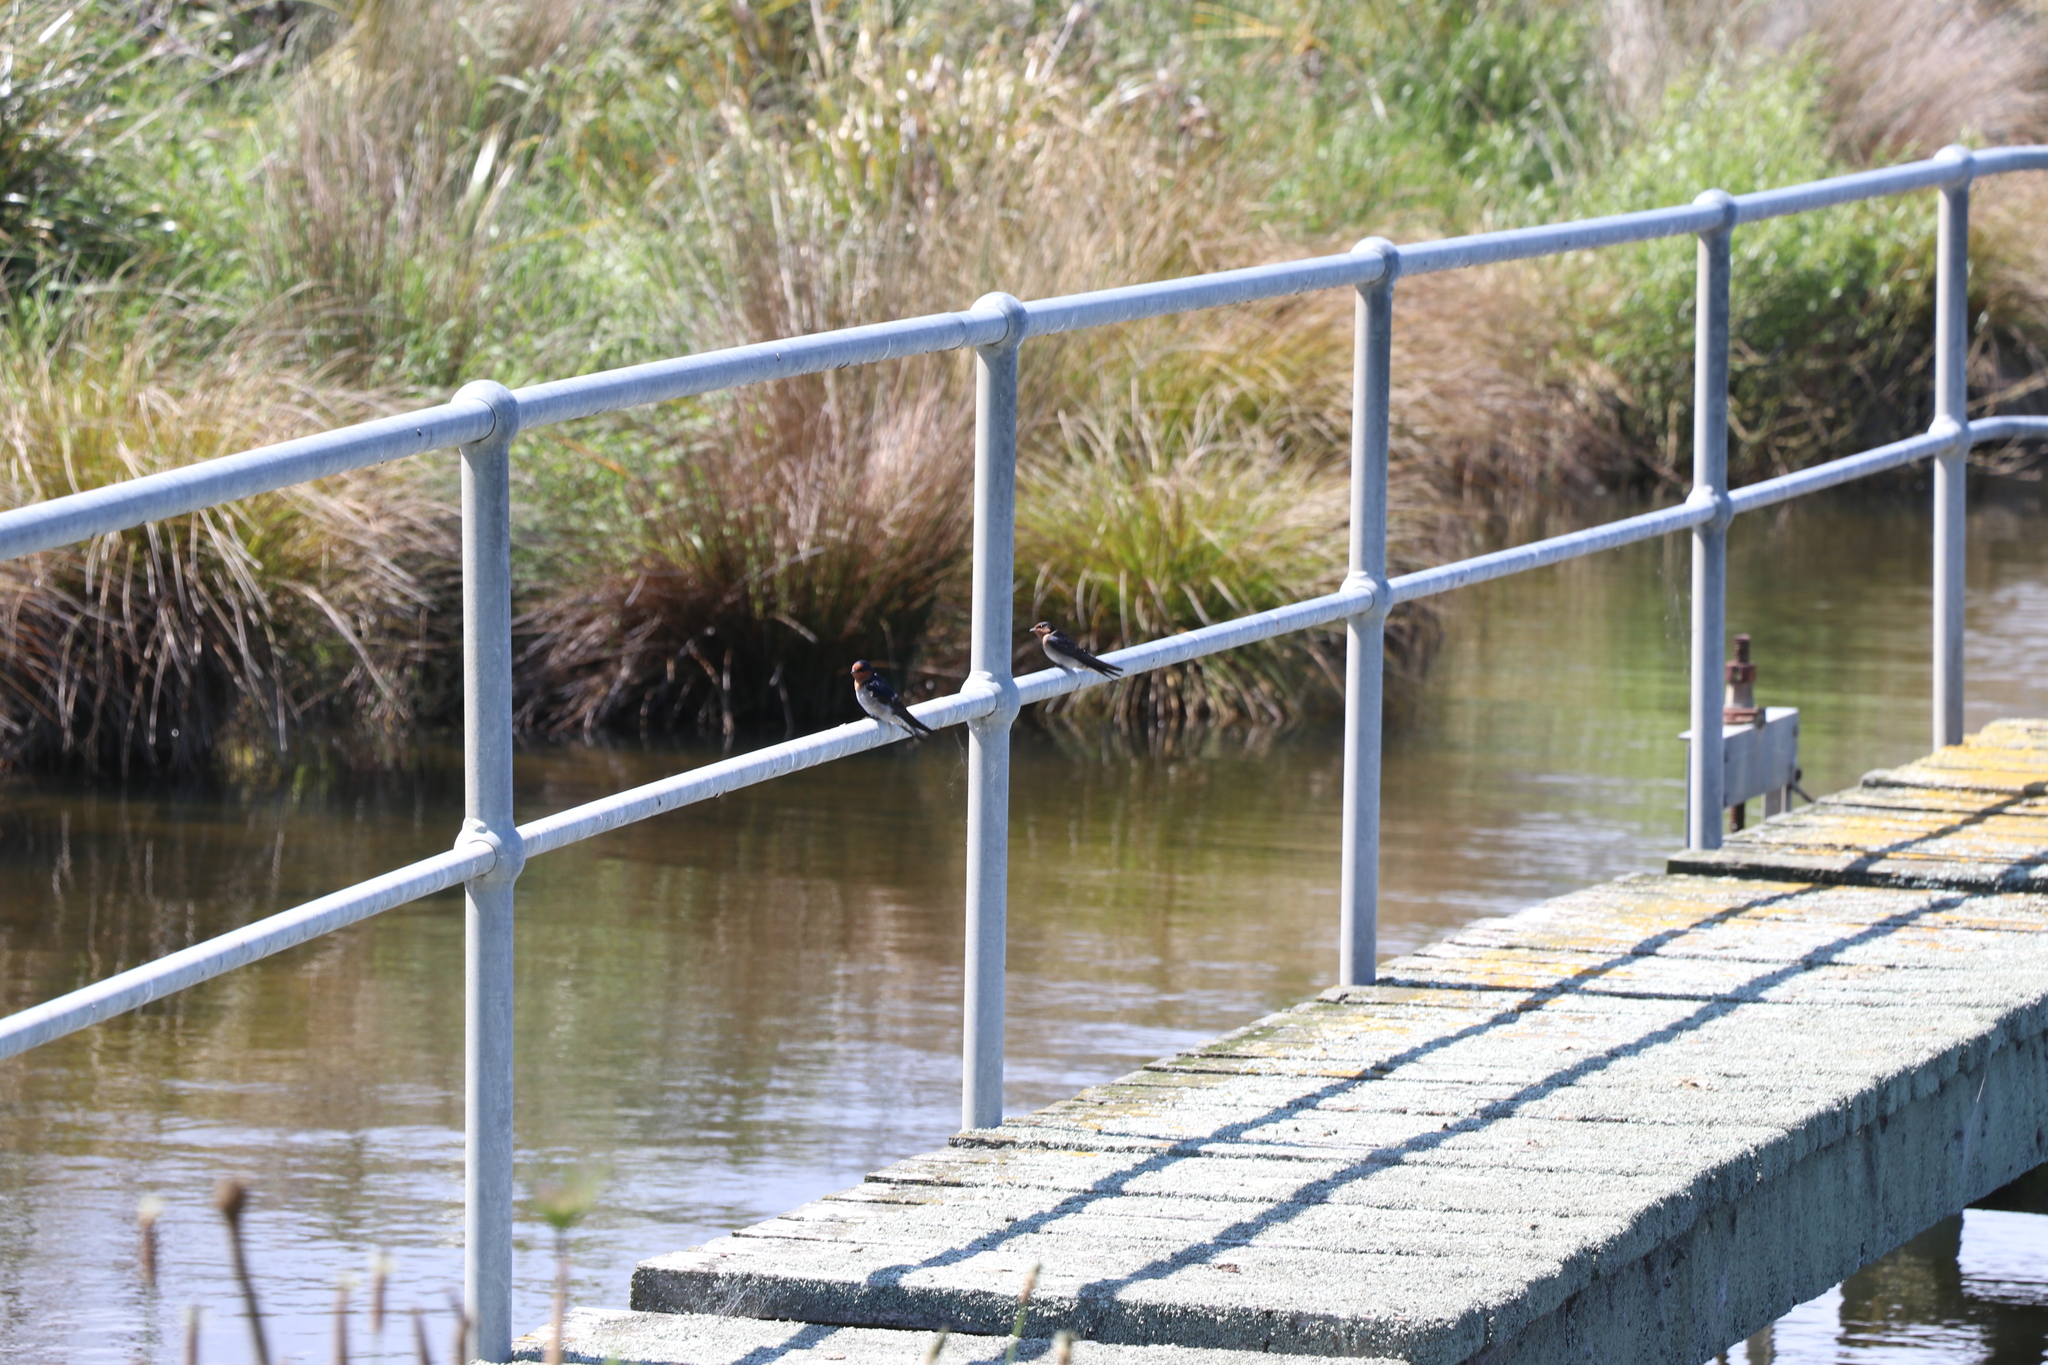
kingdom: Animalia
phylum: Chordata
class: Aves
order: Passeriformes
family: Hirundinidae
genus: Hirundo
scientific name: Hirundo neoxena
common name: Welcome swallow
